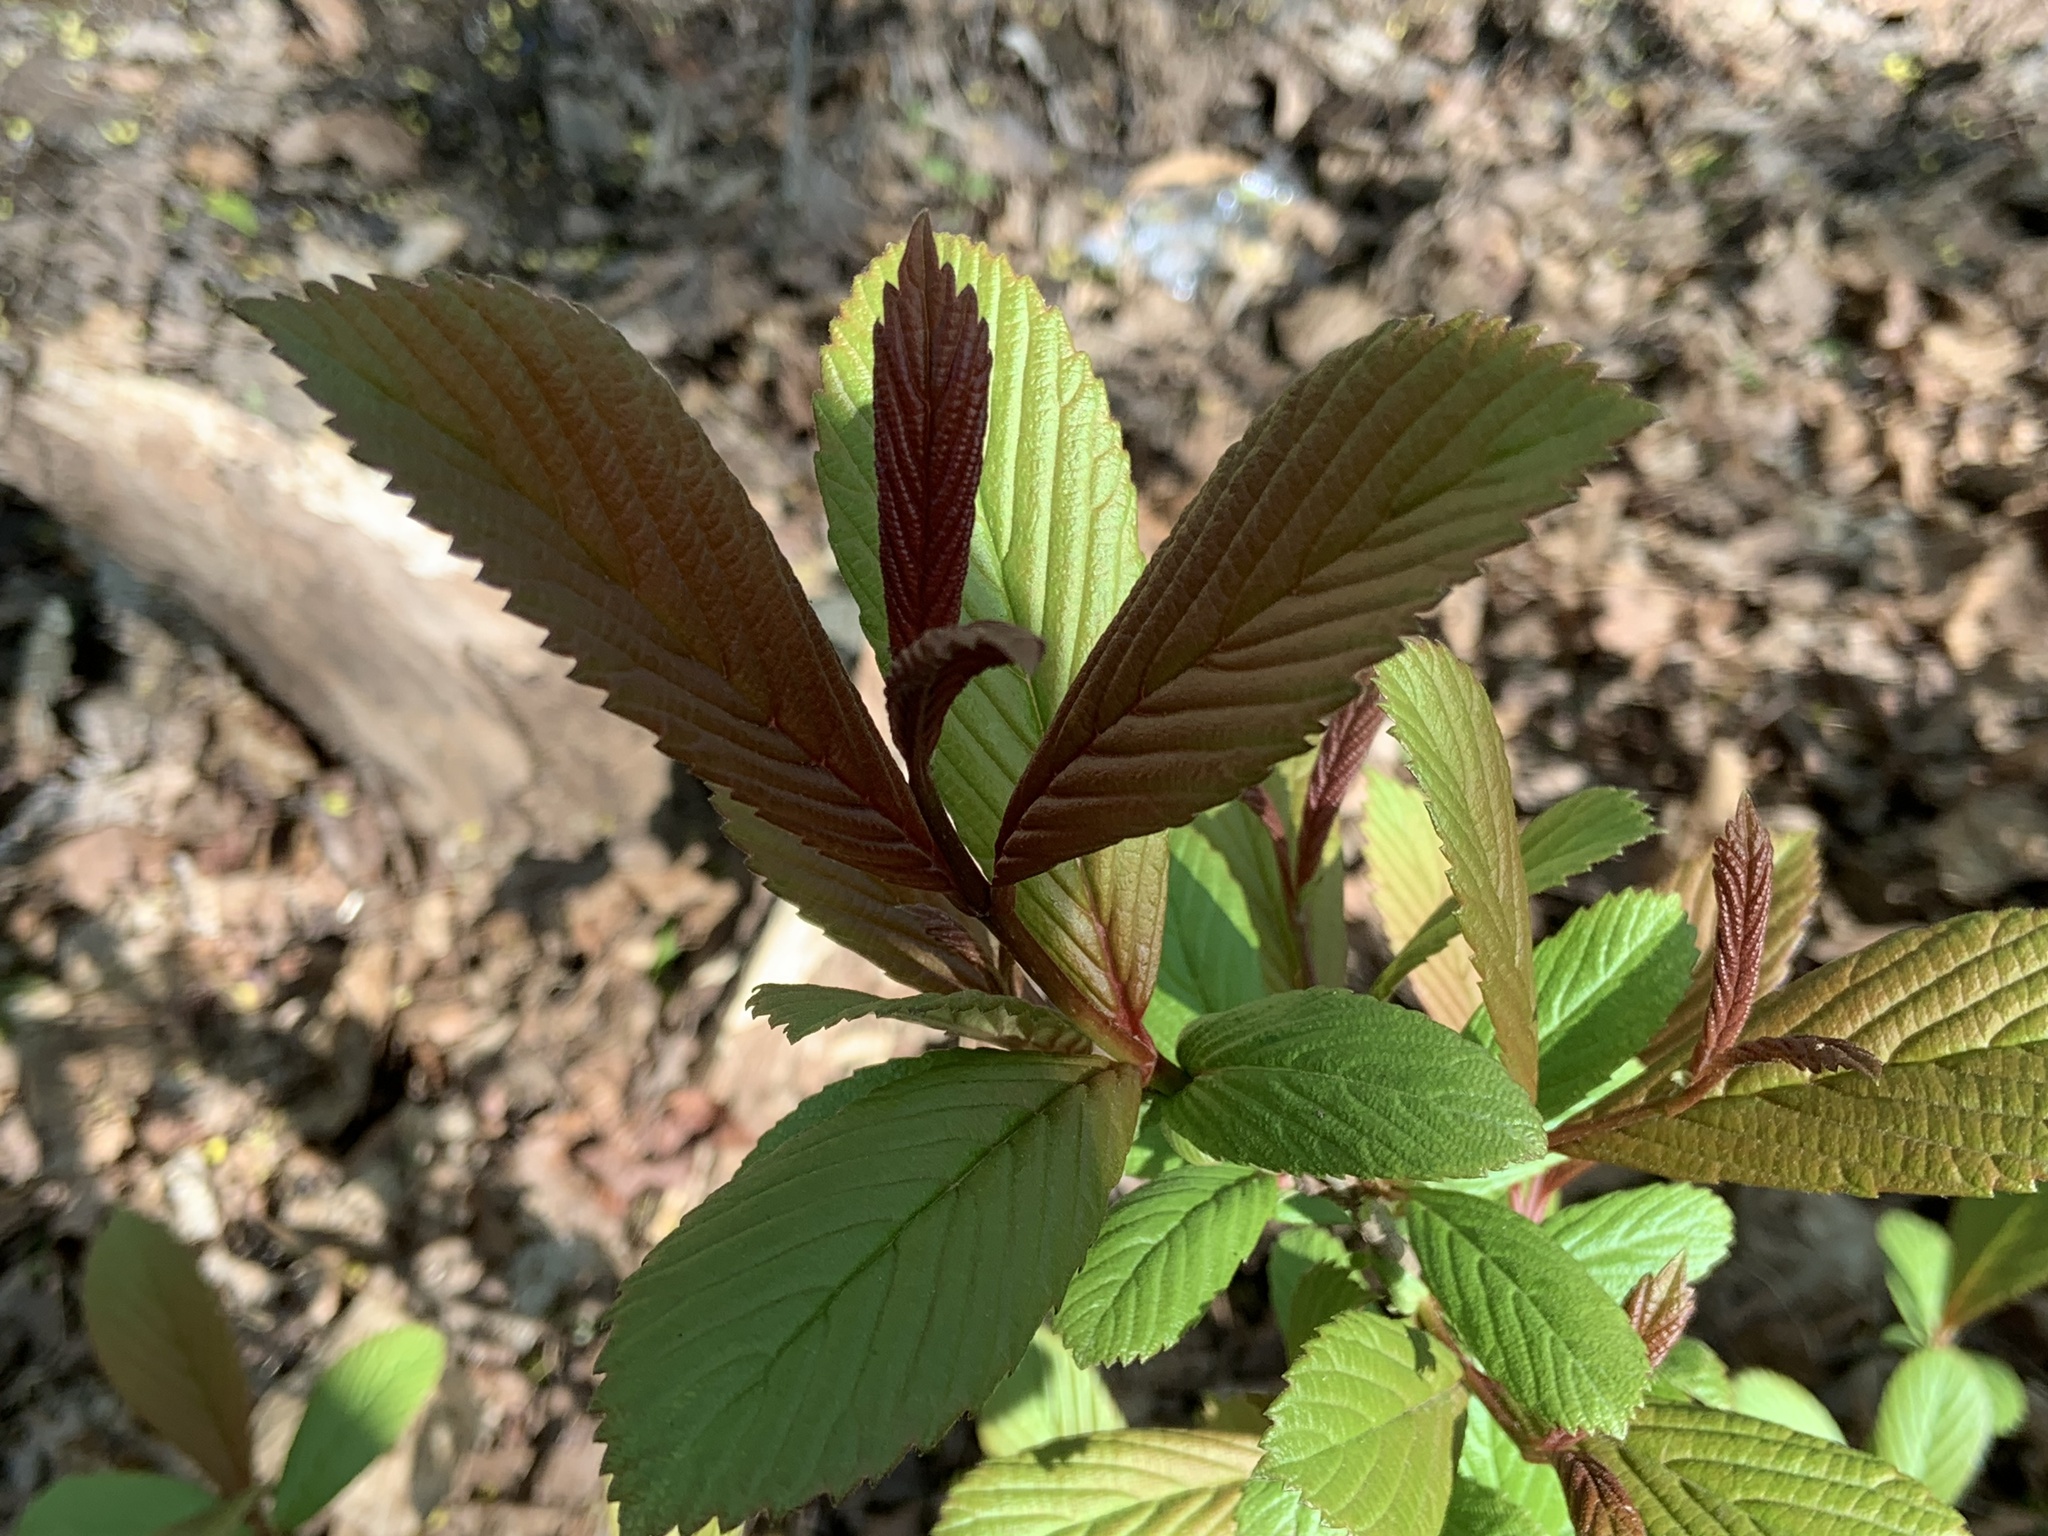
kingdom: Plantae
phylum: Tracheophyta
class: Magnoliopsida
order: Dipsacales
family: Viburnaceae
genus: Viburnum
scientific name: Viburnum sieboldii
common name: Siebold's arrowwood
